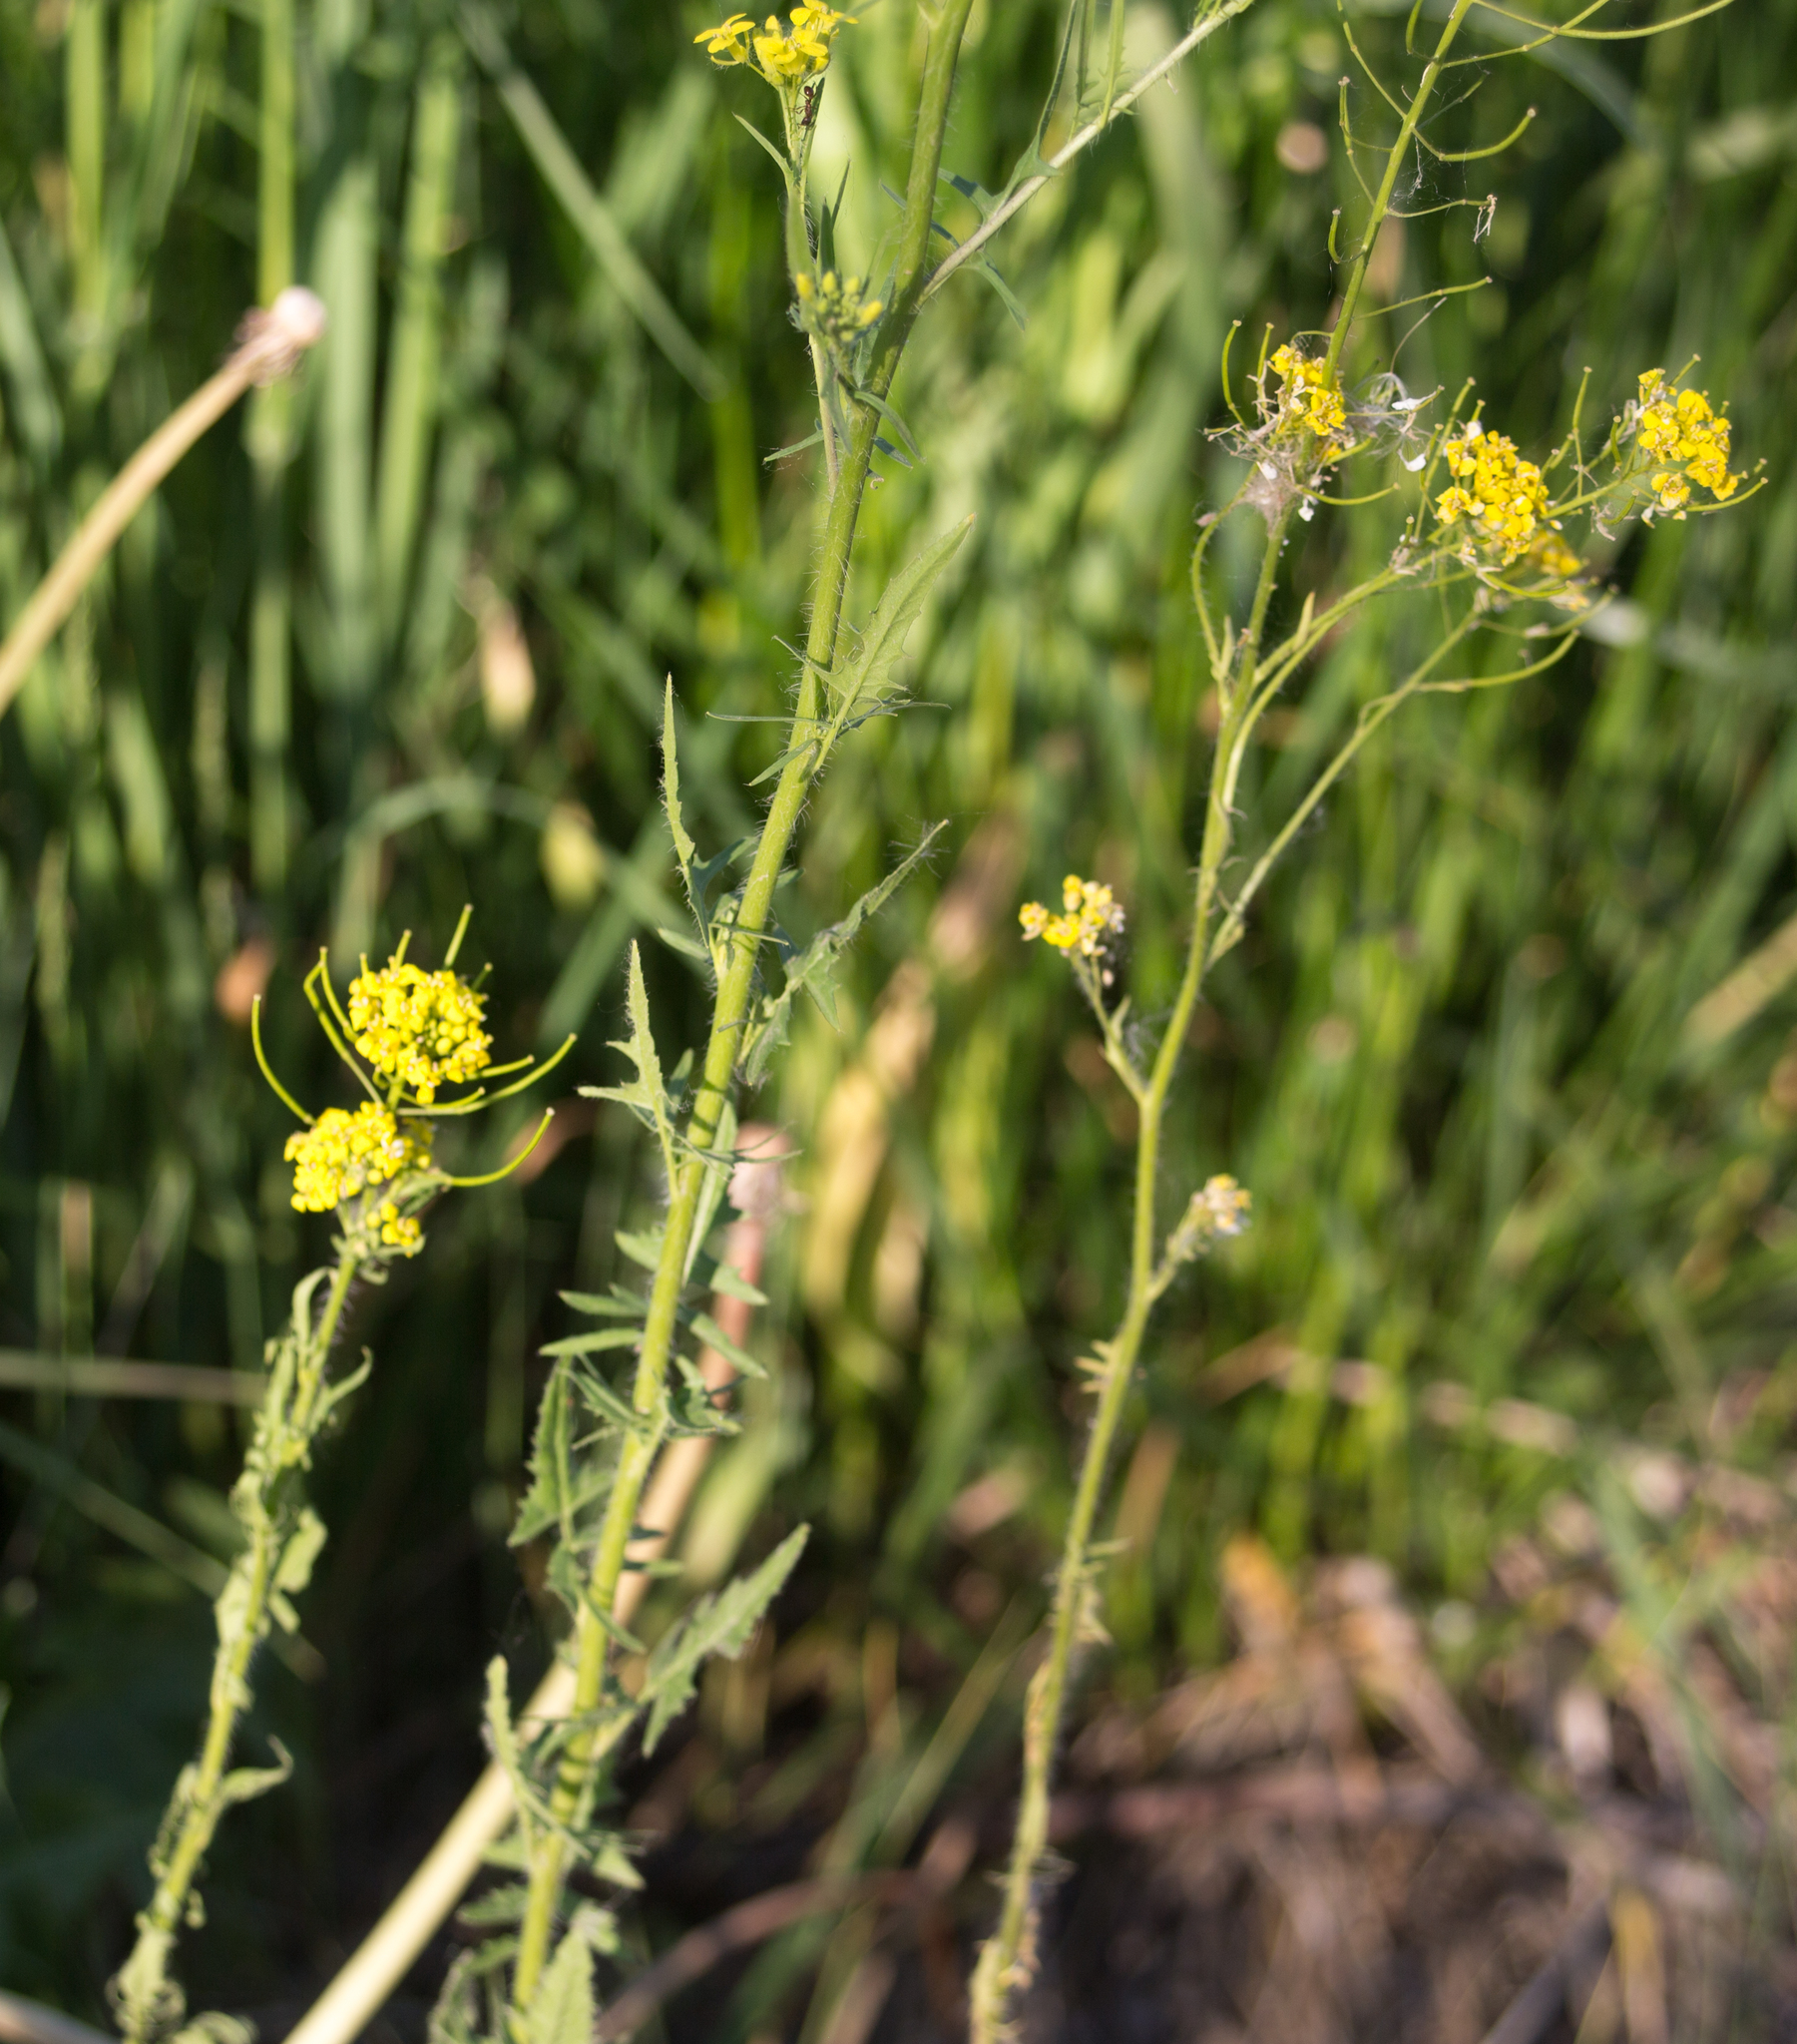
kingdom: Plantae
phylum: Tracheophyta
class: Magnoliopsida
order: Brassicales
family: Brassicaceae
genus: Sisymbrium
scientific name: Sisymbrium loeselii
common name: False london-rocket
